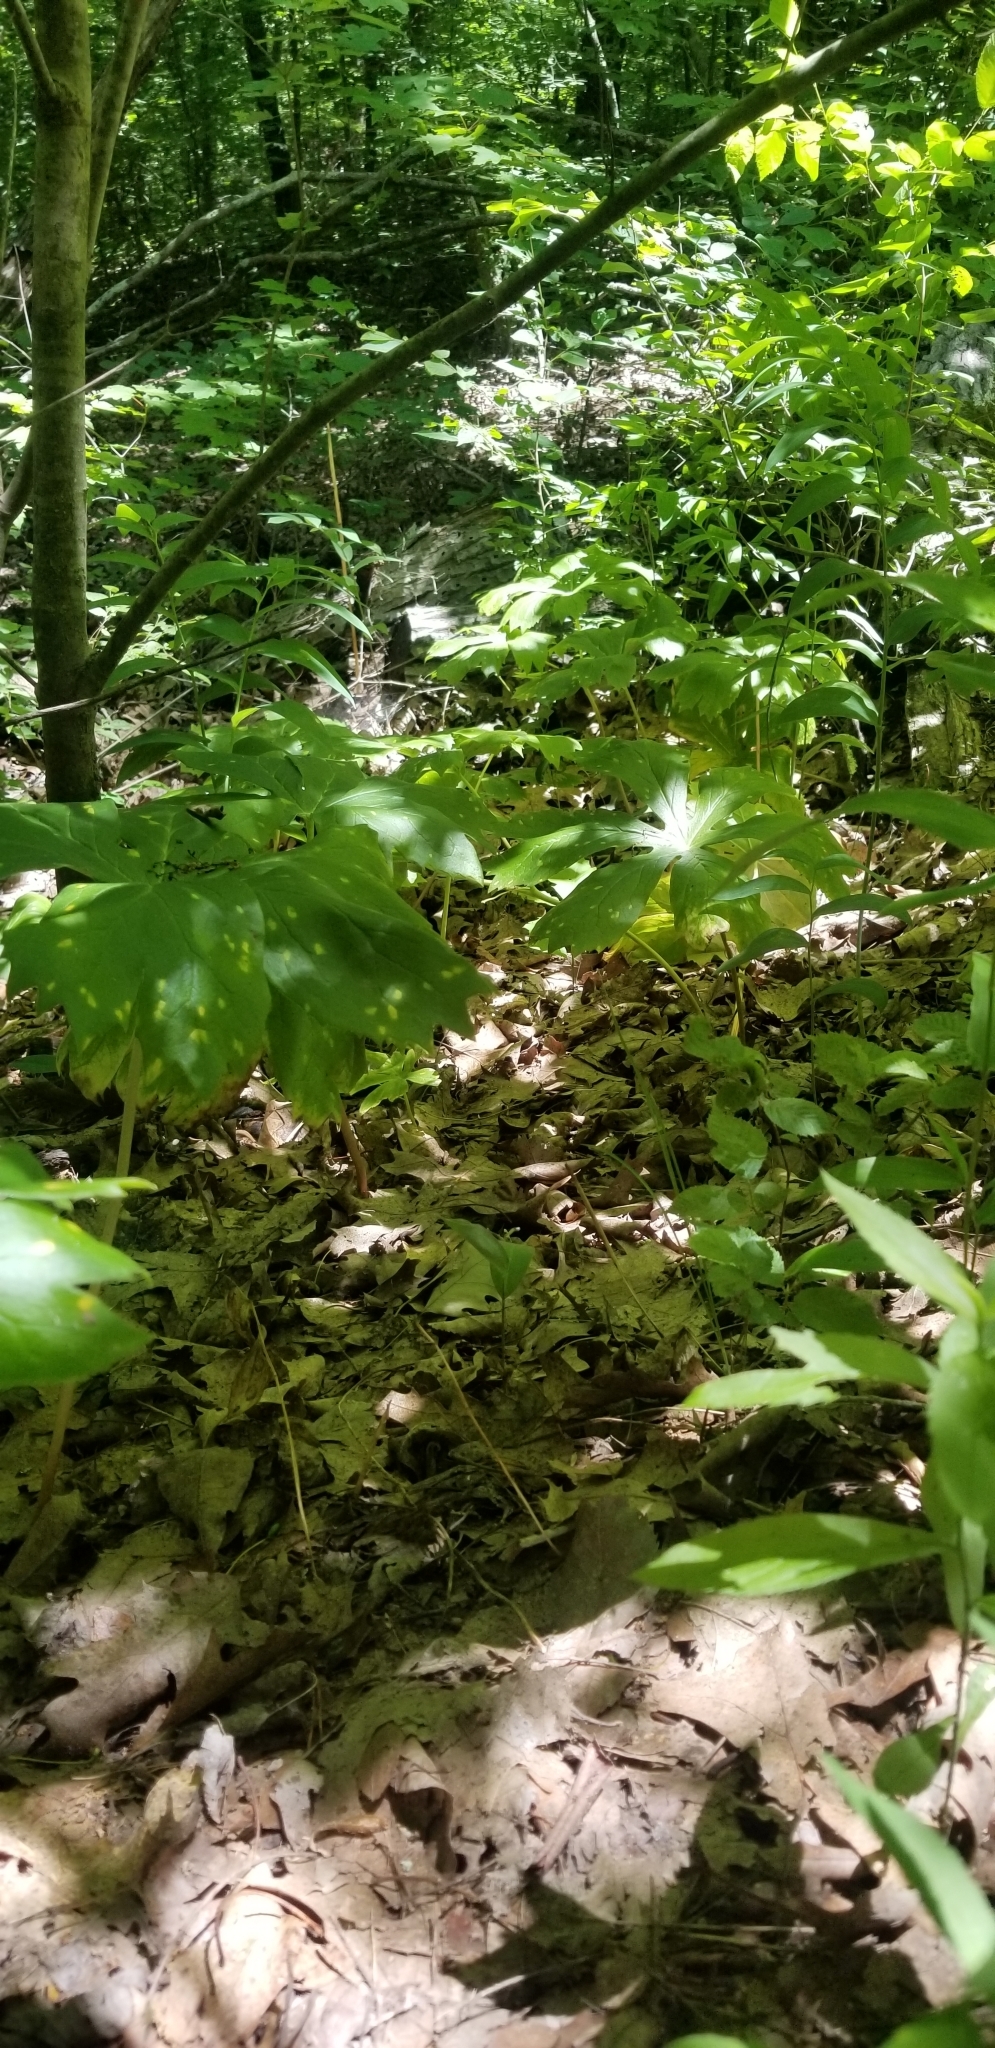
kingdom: Plantae
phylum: Tracheophyta
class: Magnoliopsida
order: Ranunculales
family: Berberidaceae
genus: Podophyllum
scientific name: Podophyllum peltatum
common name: Wild mandrake
